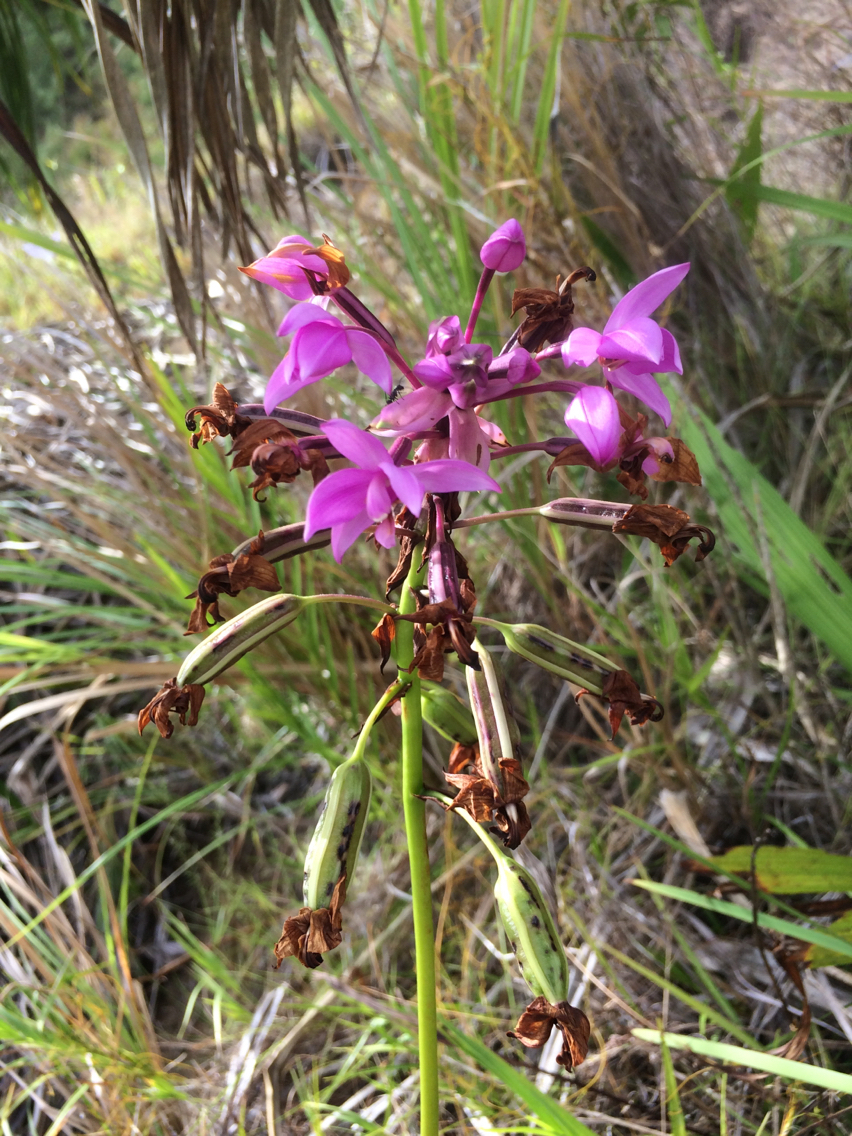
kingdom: Plantae
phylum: Tracheophyta
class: Liliopsida
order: Asparagales
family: Orchidaceae
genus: Spathoglottis
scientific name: Spathoglottis plicata
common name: Philippine ground orchid
